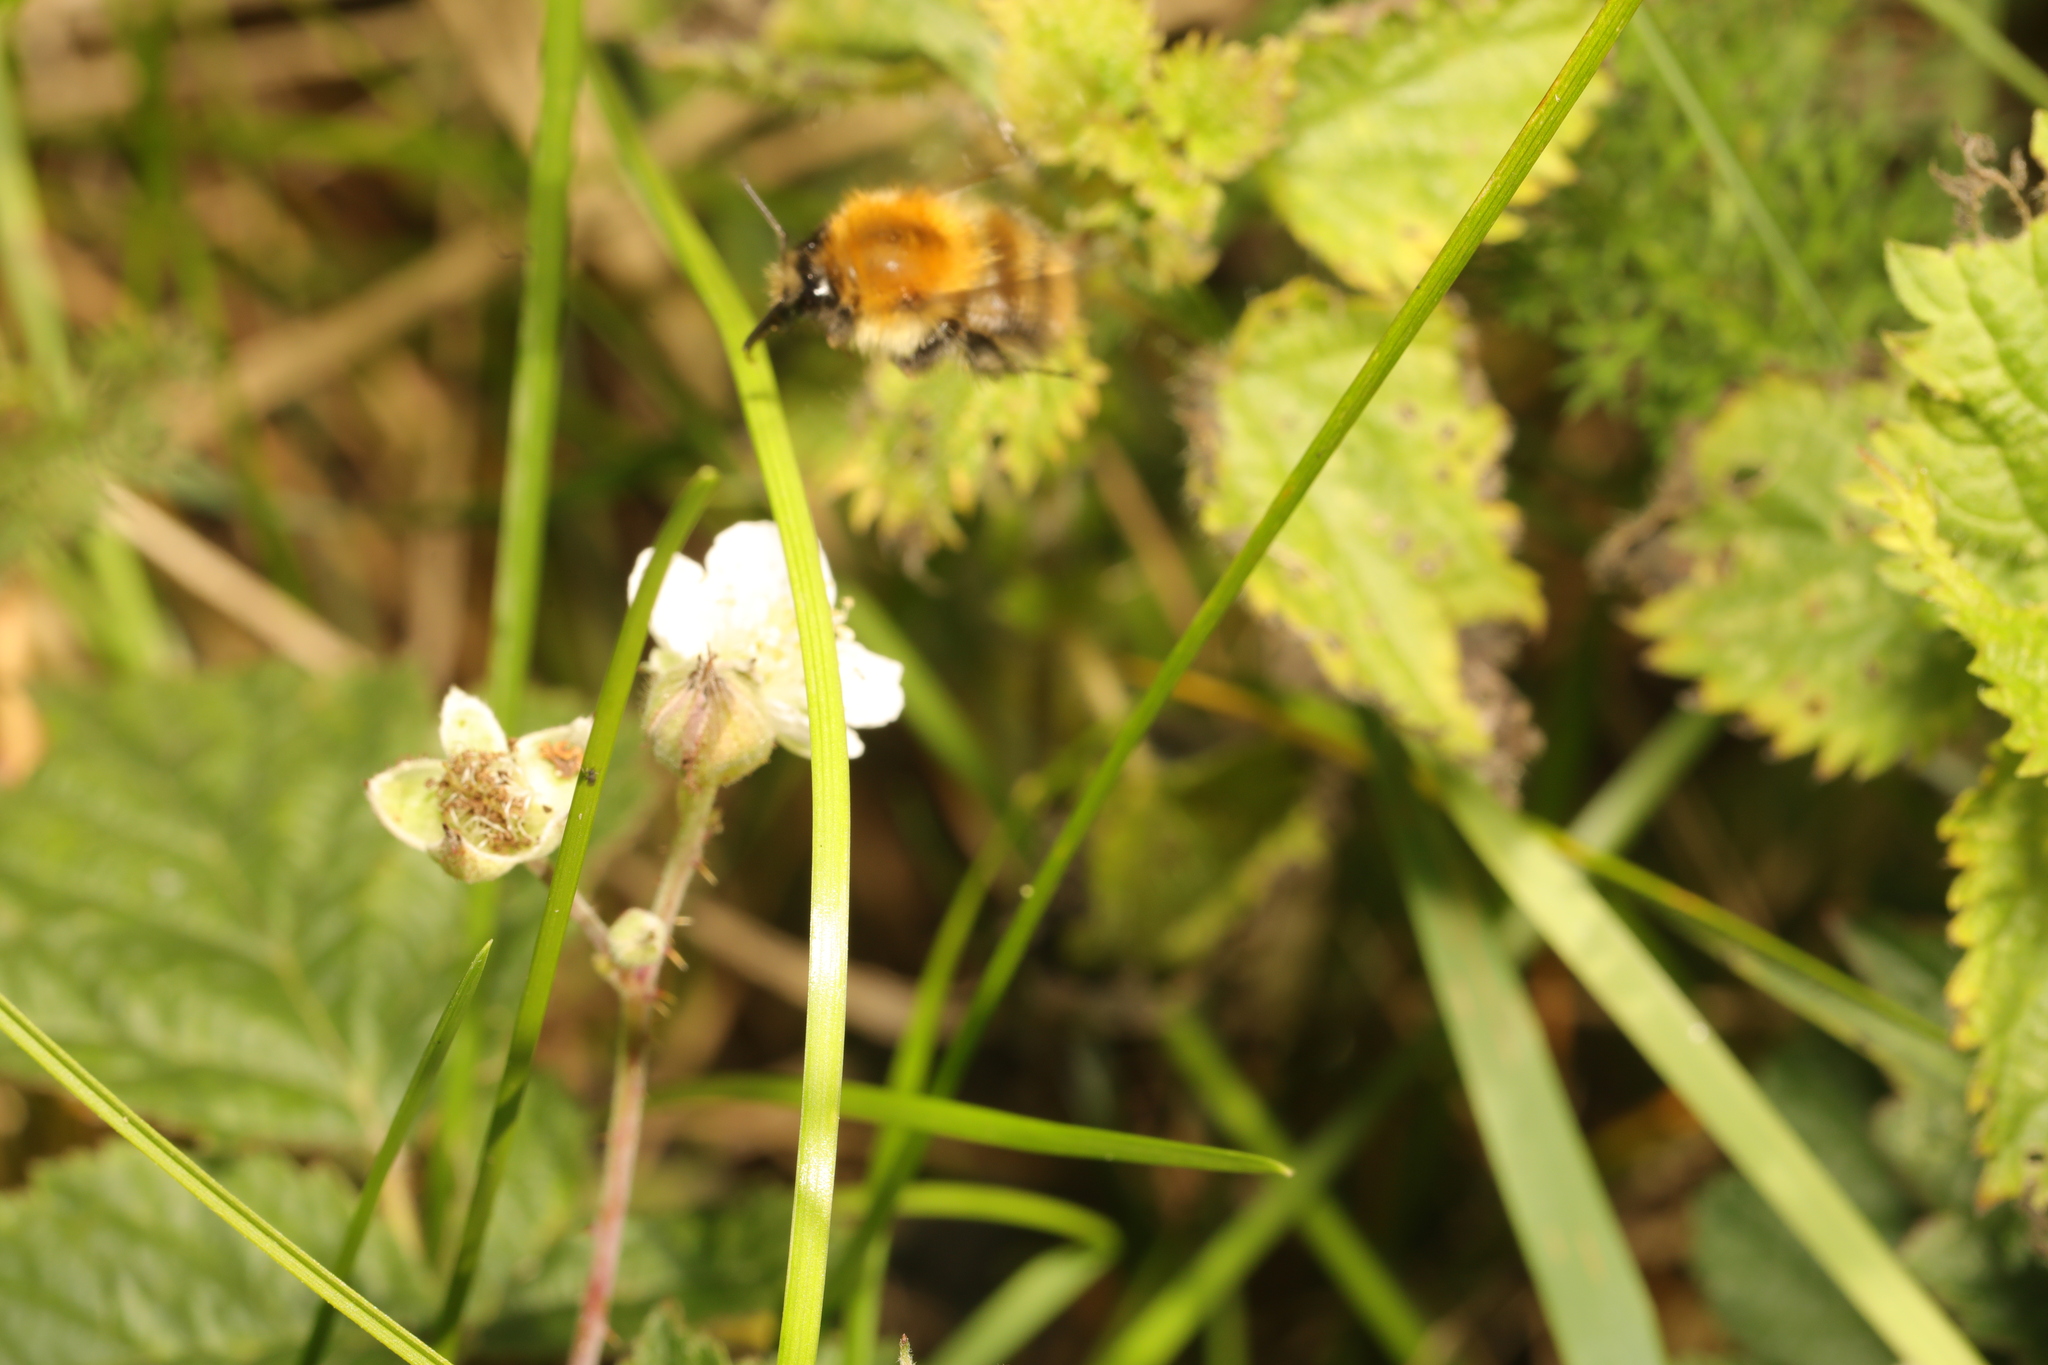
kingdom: Animalia
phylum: Arthropoda
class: Insecta
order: Hymenoptera
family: Apidae
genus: Bombus
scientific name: Bombus pascuorum
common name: Common carder bee
